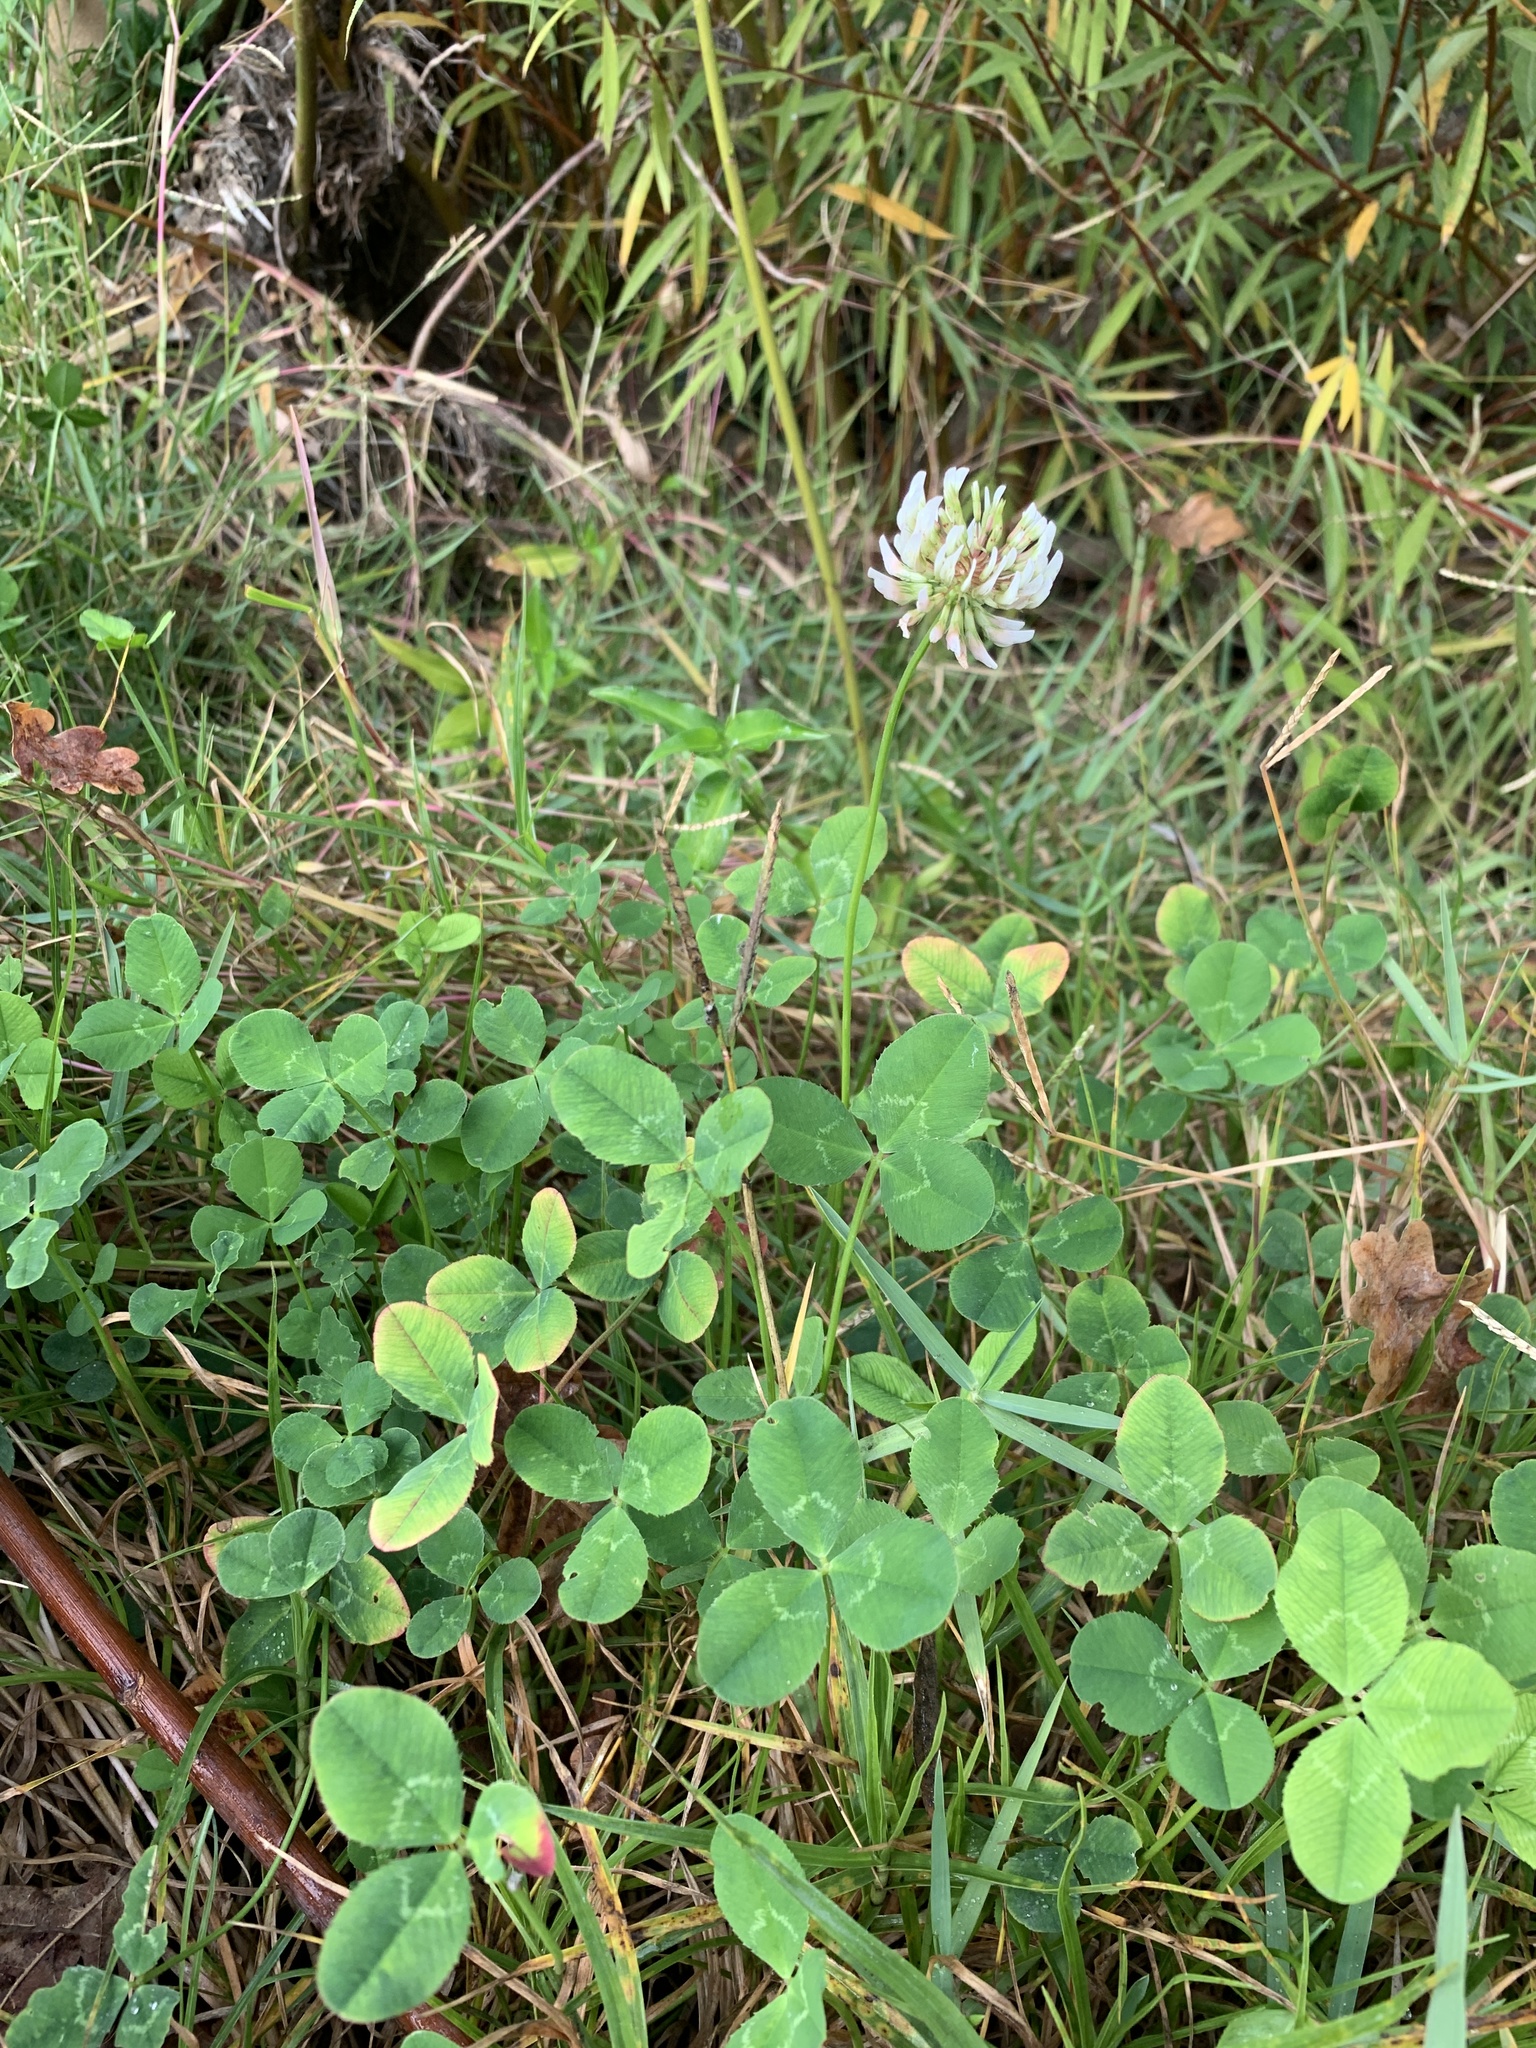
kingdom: Plantae
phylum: Tracheophyta
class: Magnoliopsida
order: Fabales
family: Fabaceae
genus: Trifolium
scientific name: Trifolium repens
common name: White clover
